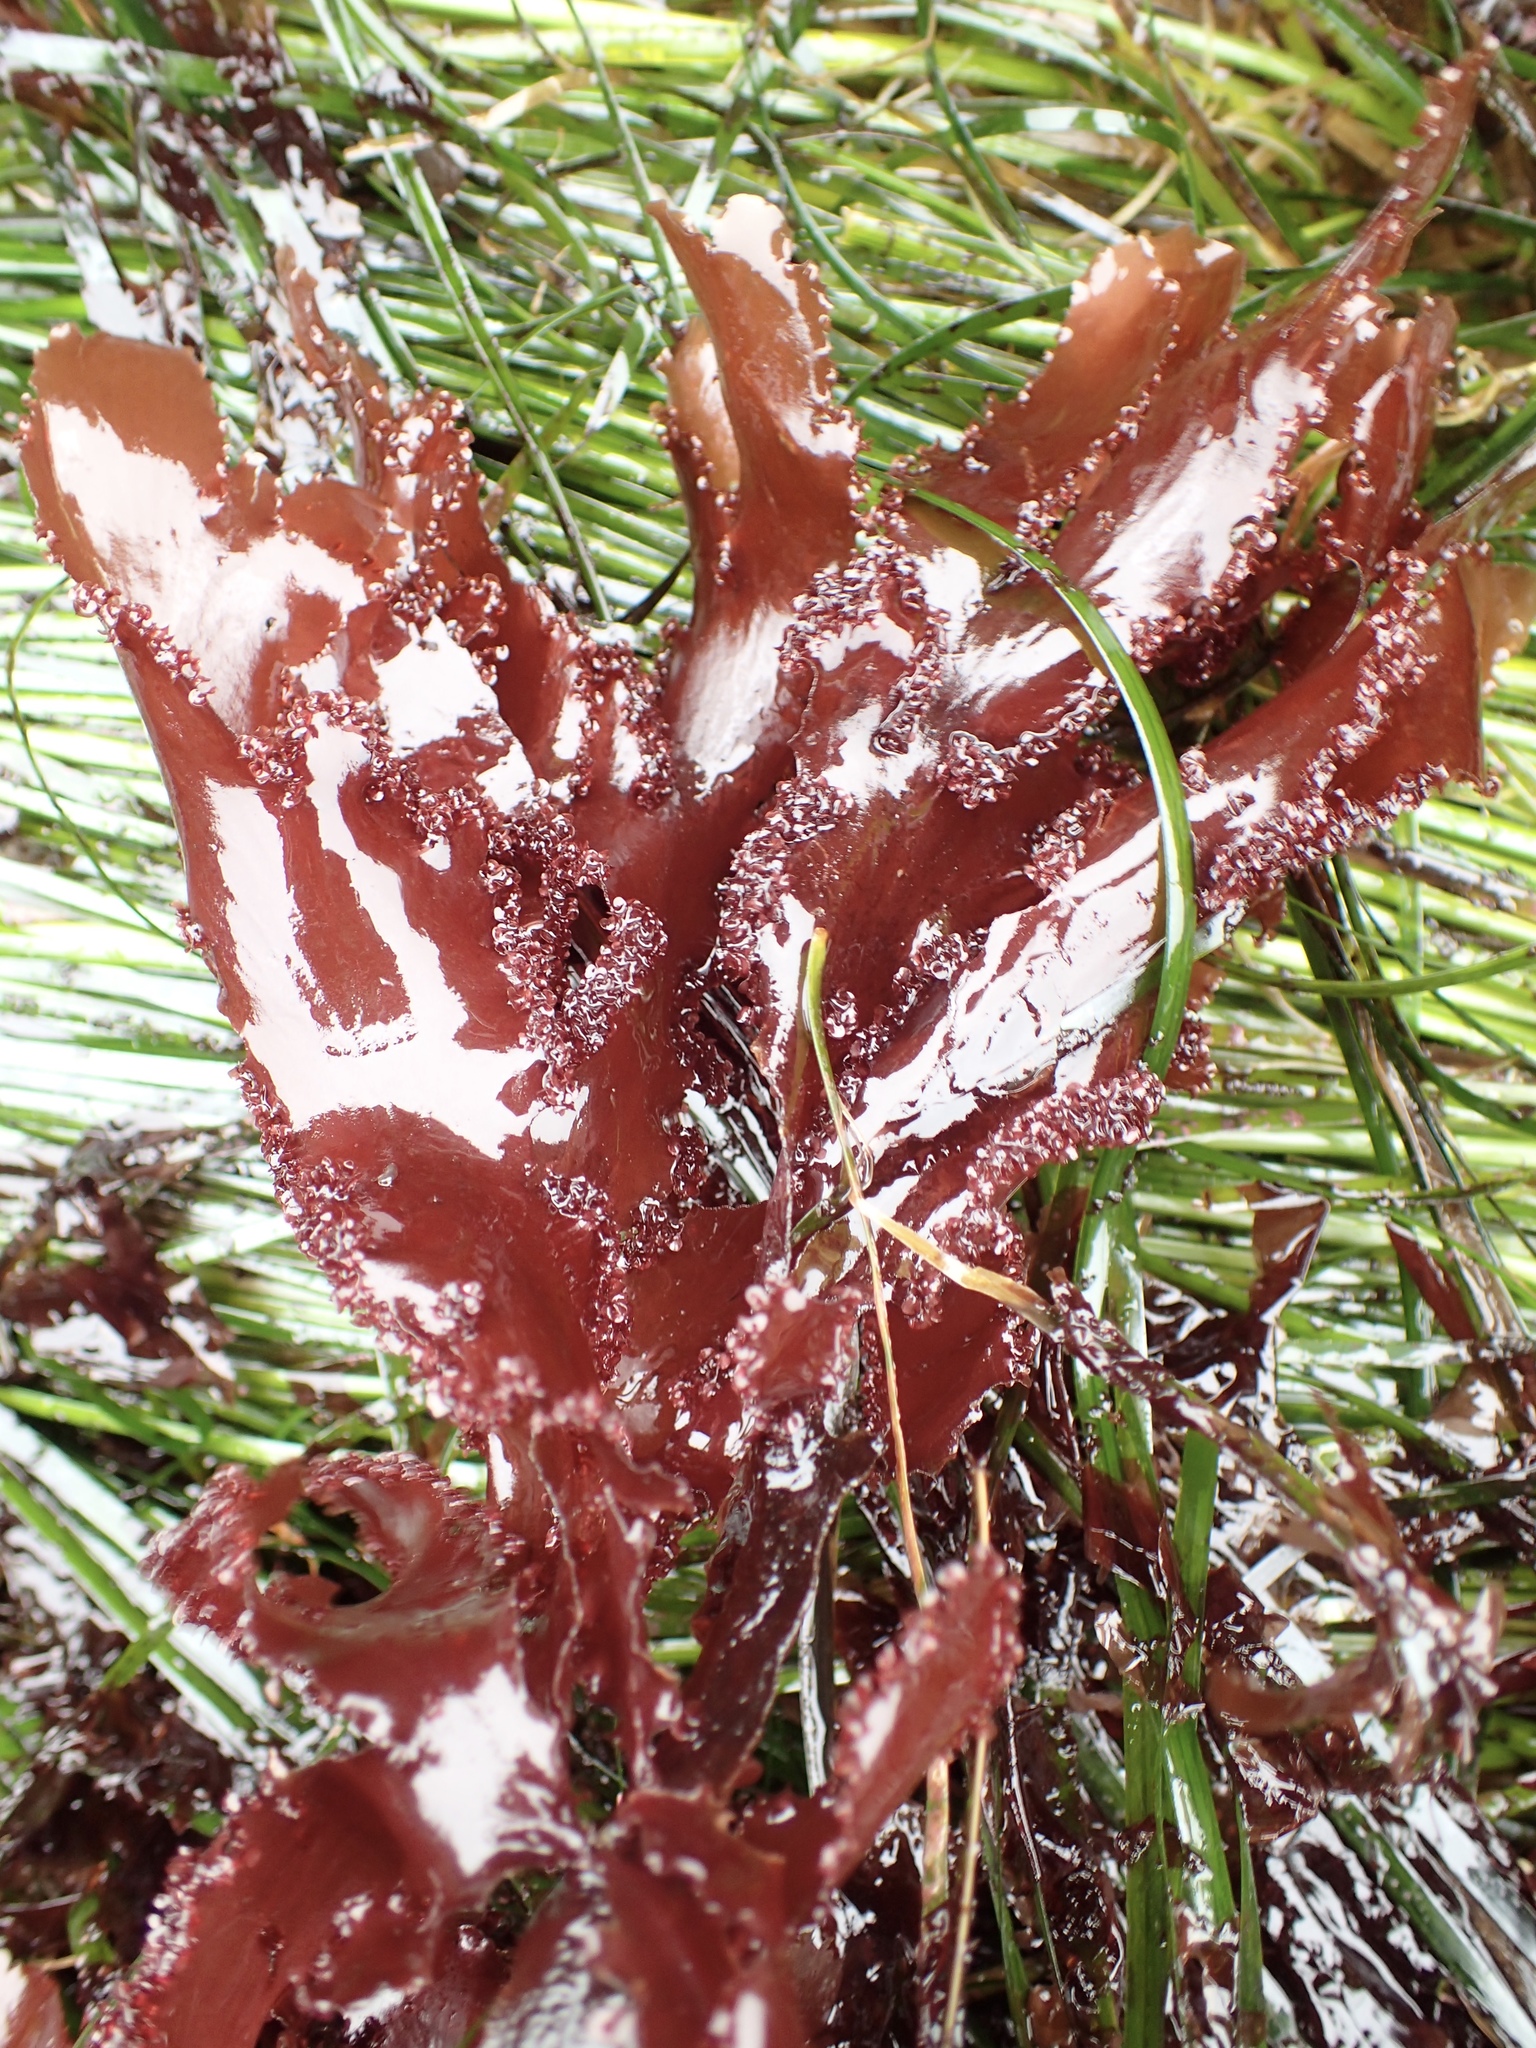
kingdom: Plantae
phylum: Rhodophyta
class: Florideophyceae
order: Ceramiales
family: Delesseriaceae
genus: Cryptopleura
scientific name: Cryptopleura ruprechtiana
